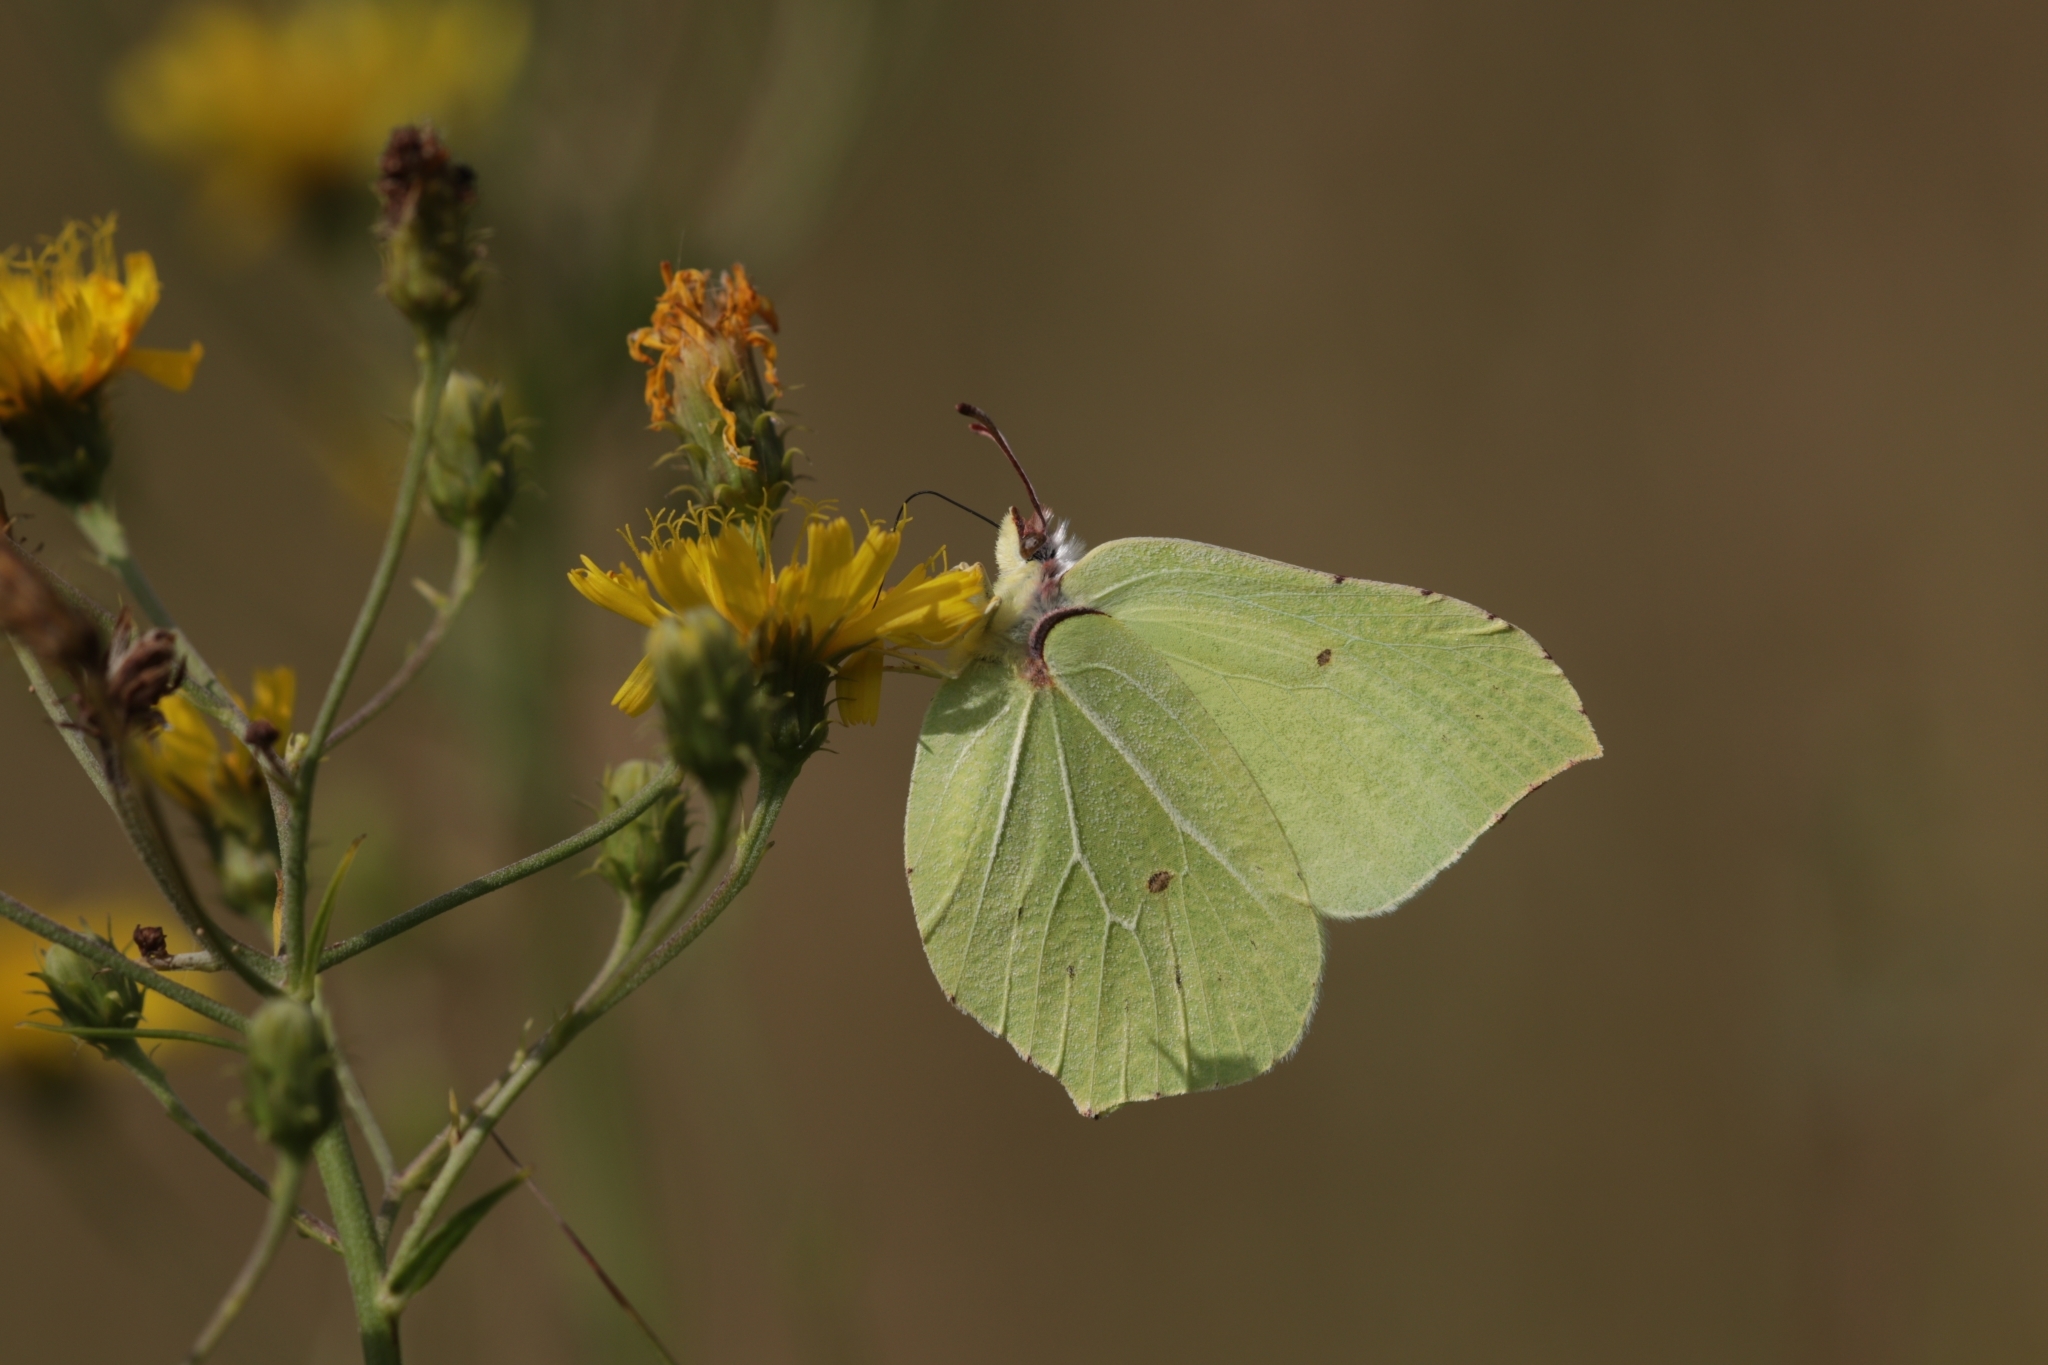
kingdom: Animalia
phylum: Arthropoda
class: Insecta
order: Lepidoptera
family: Pieridae
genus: Gonepteryx
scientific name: Gonepteryx rhamni
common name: Brimstone
